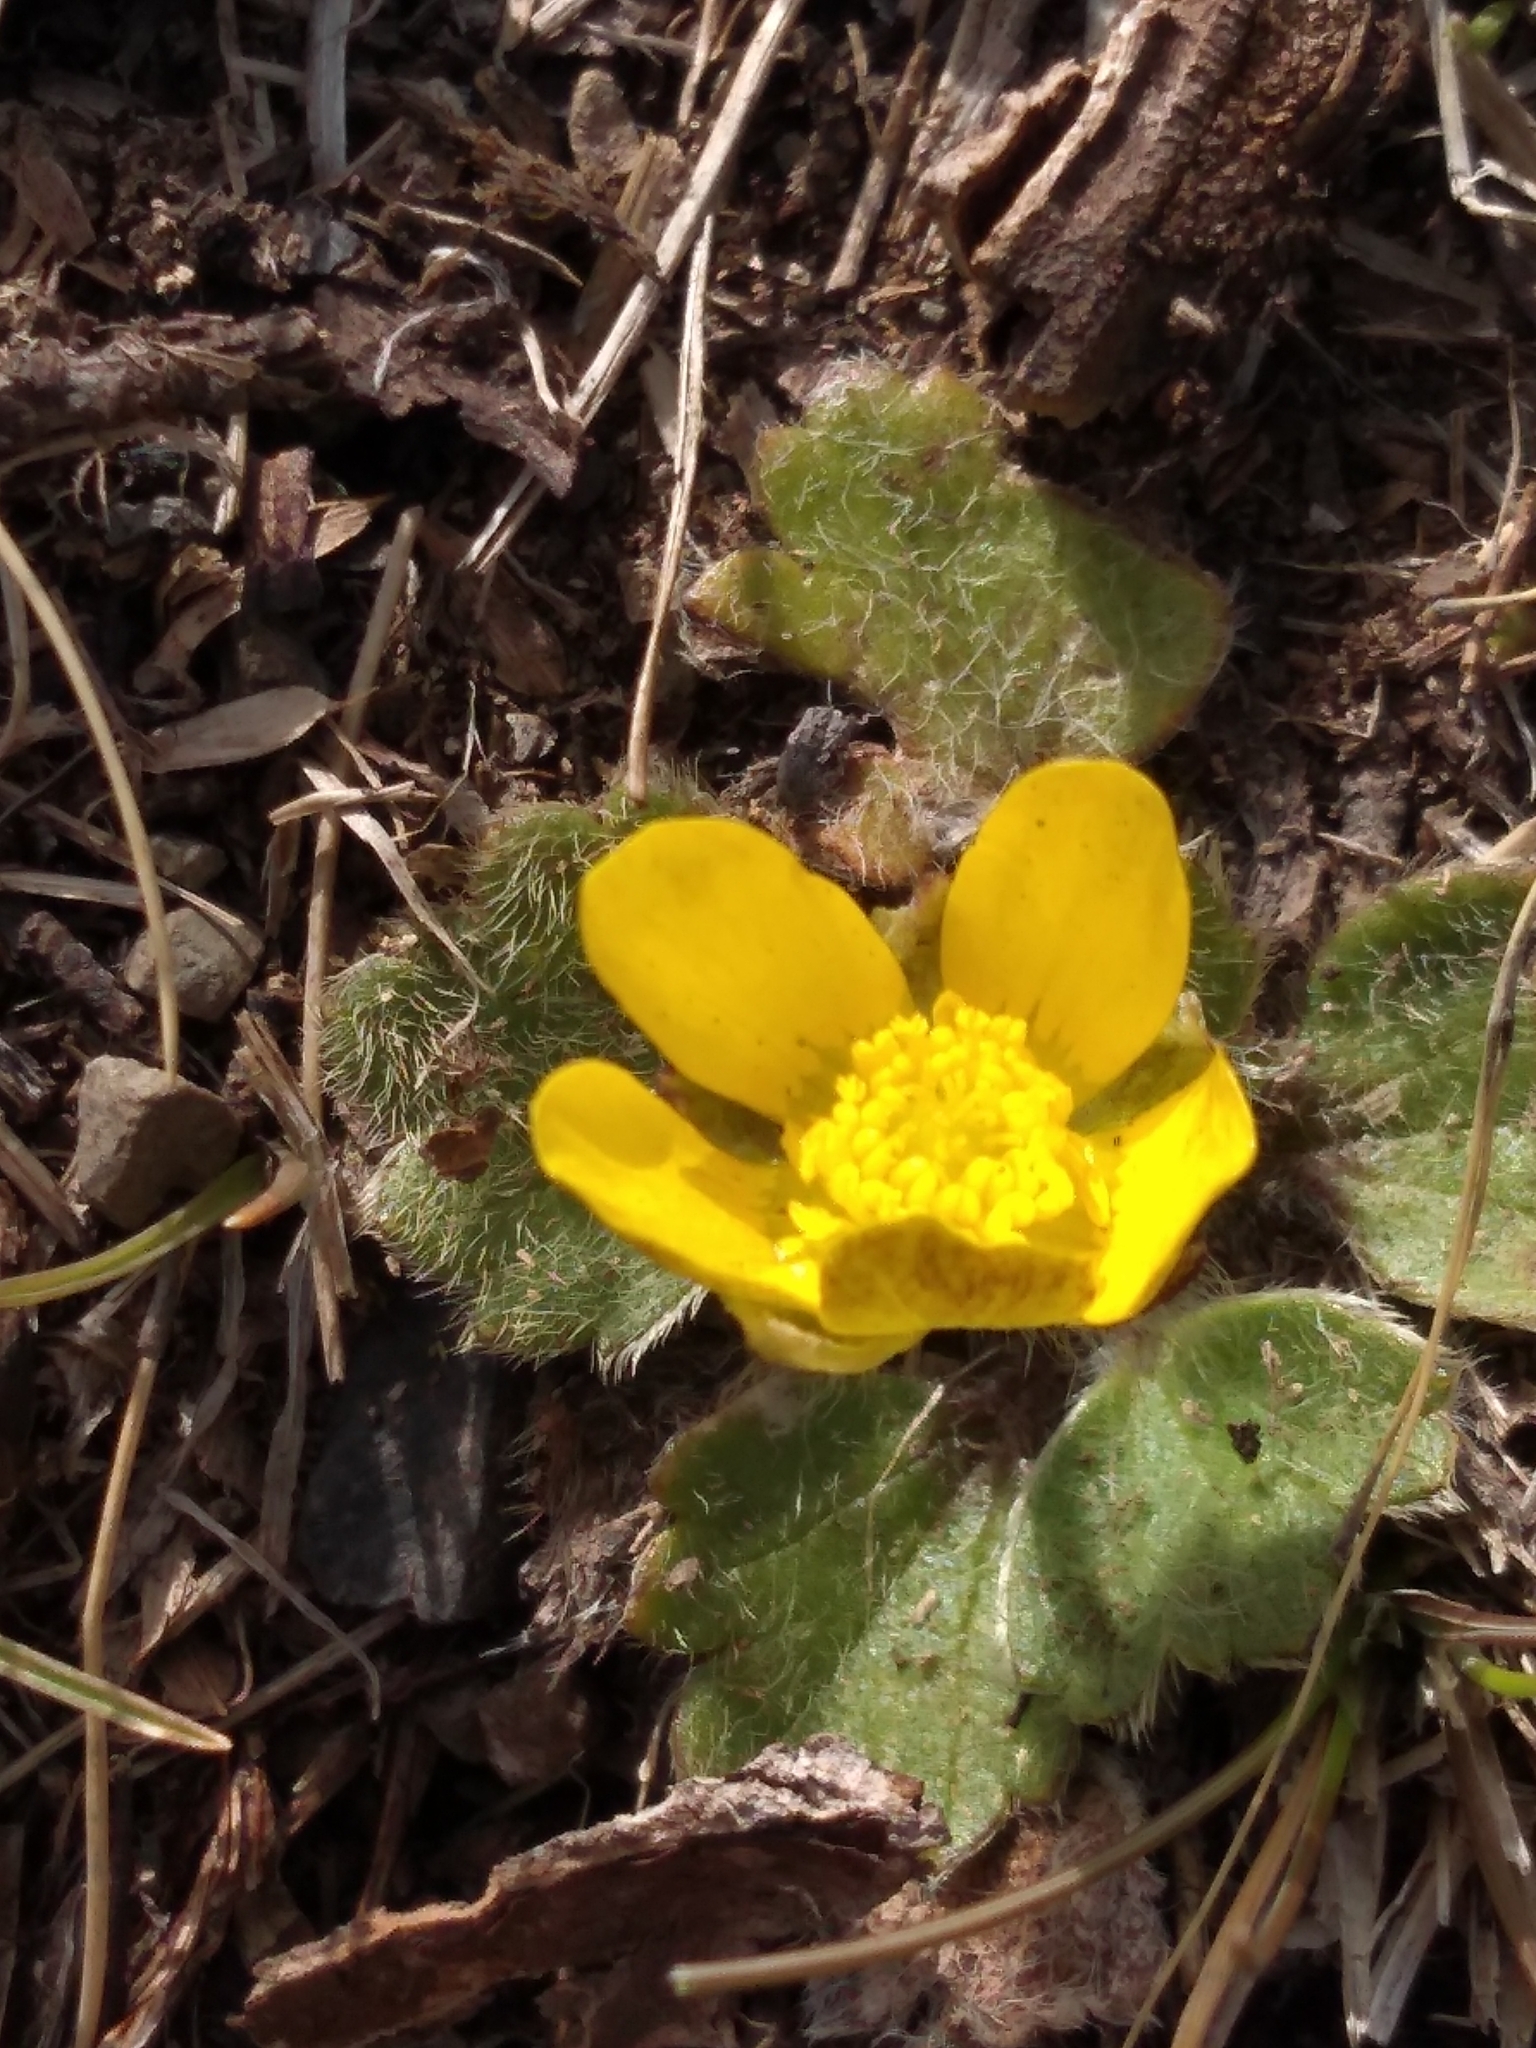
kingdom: Plantae
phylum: Tracheophyta
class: Magnoliopsida
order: Ranunculales
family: Ranunculaceae
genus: Ranunculus
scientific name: Ranunculus insignis
